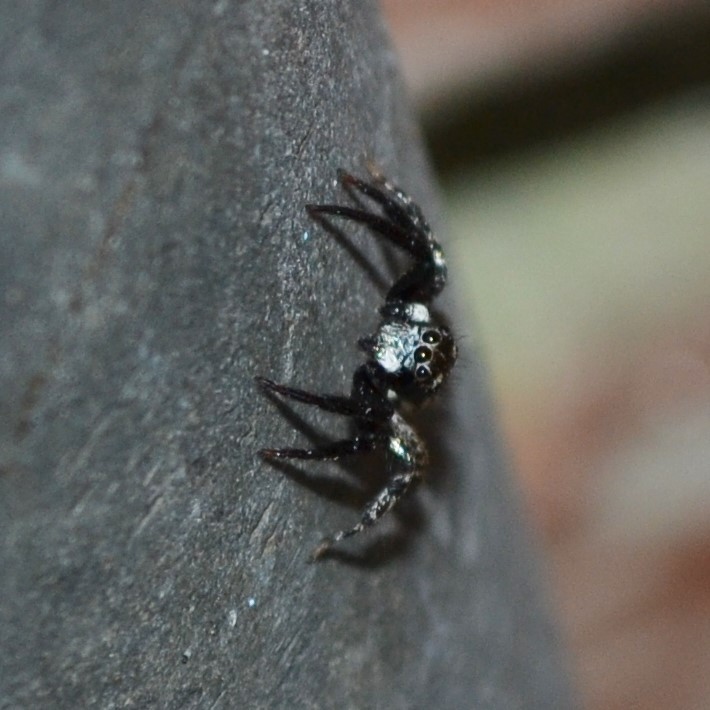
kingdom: Animalia
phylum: Arthropoda
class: Arachnida
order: Araneae
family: Salticidae
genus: Anasaitis
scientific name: Anasaitis canosa
